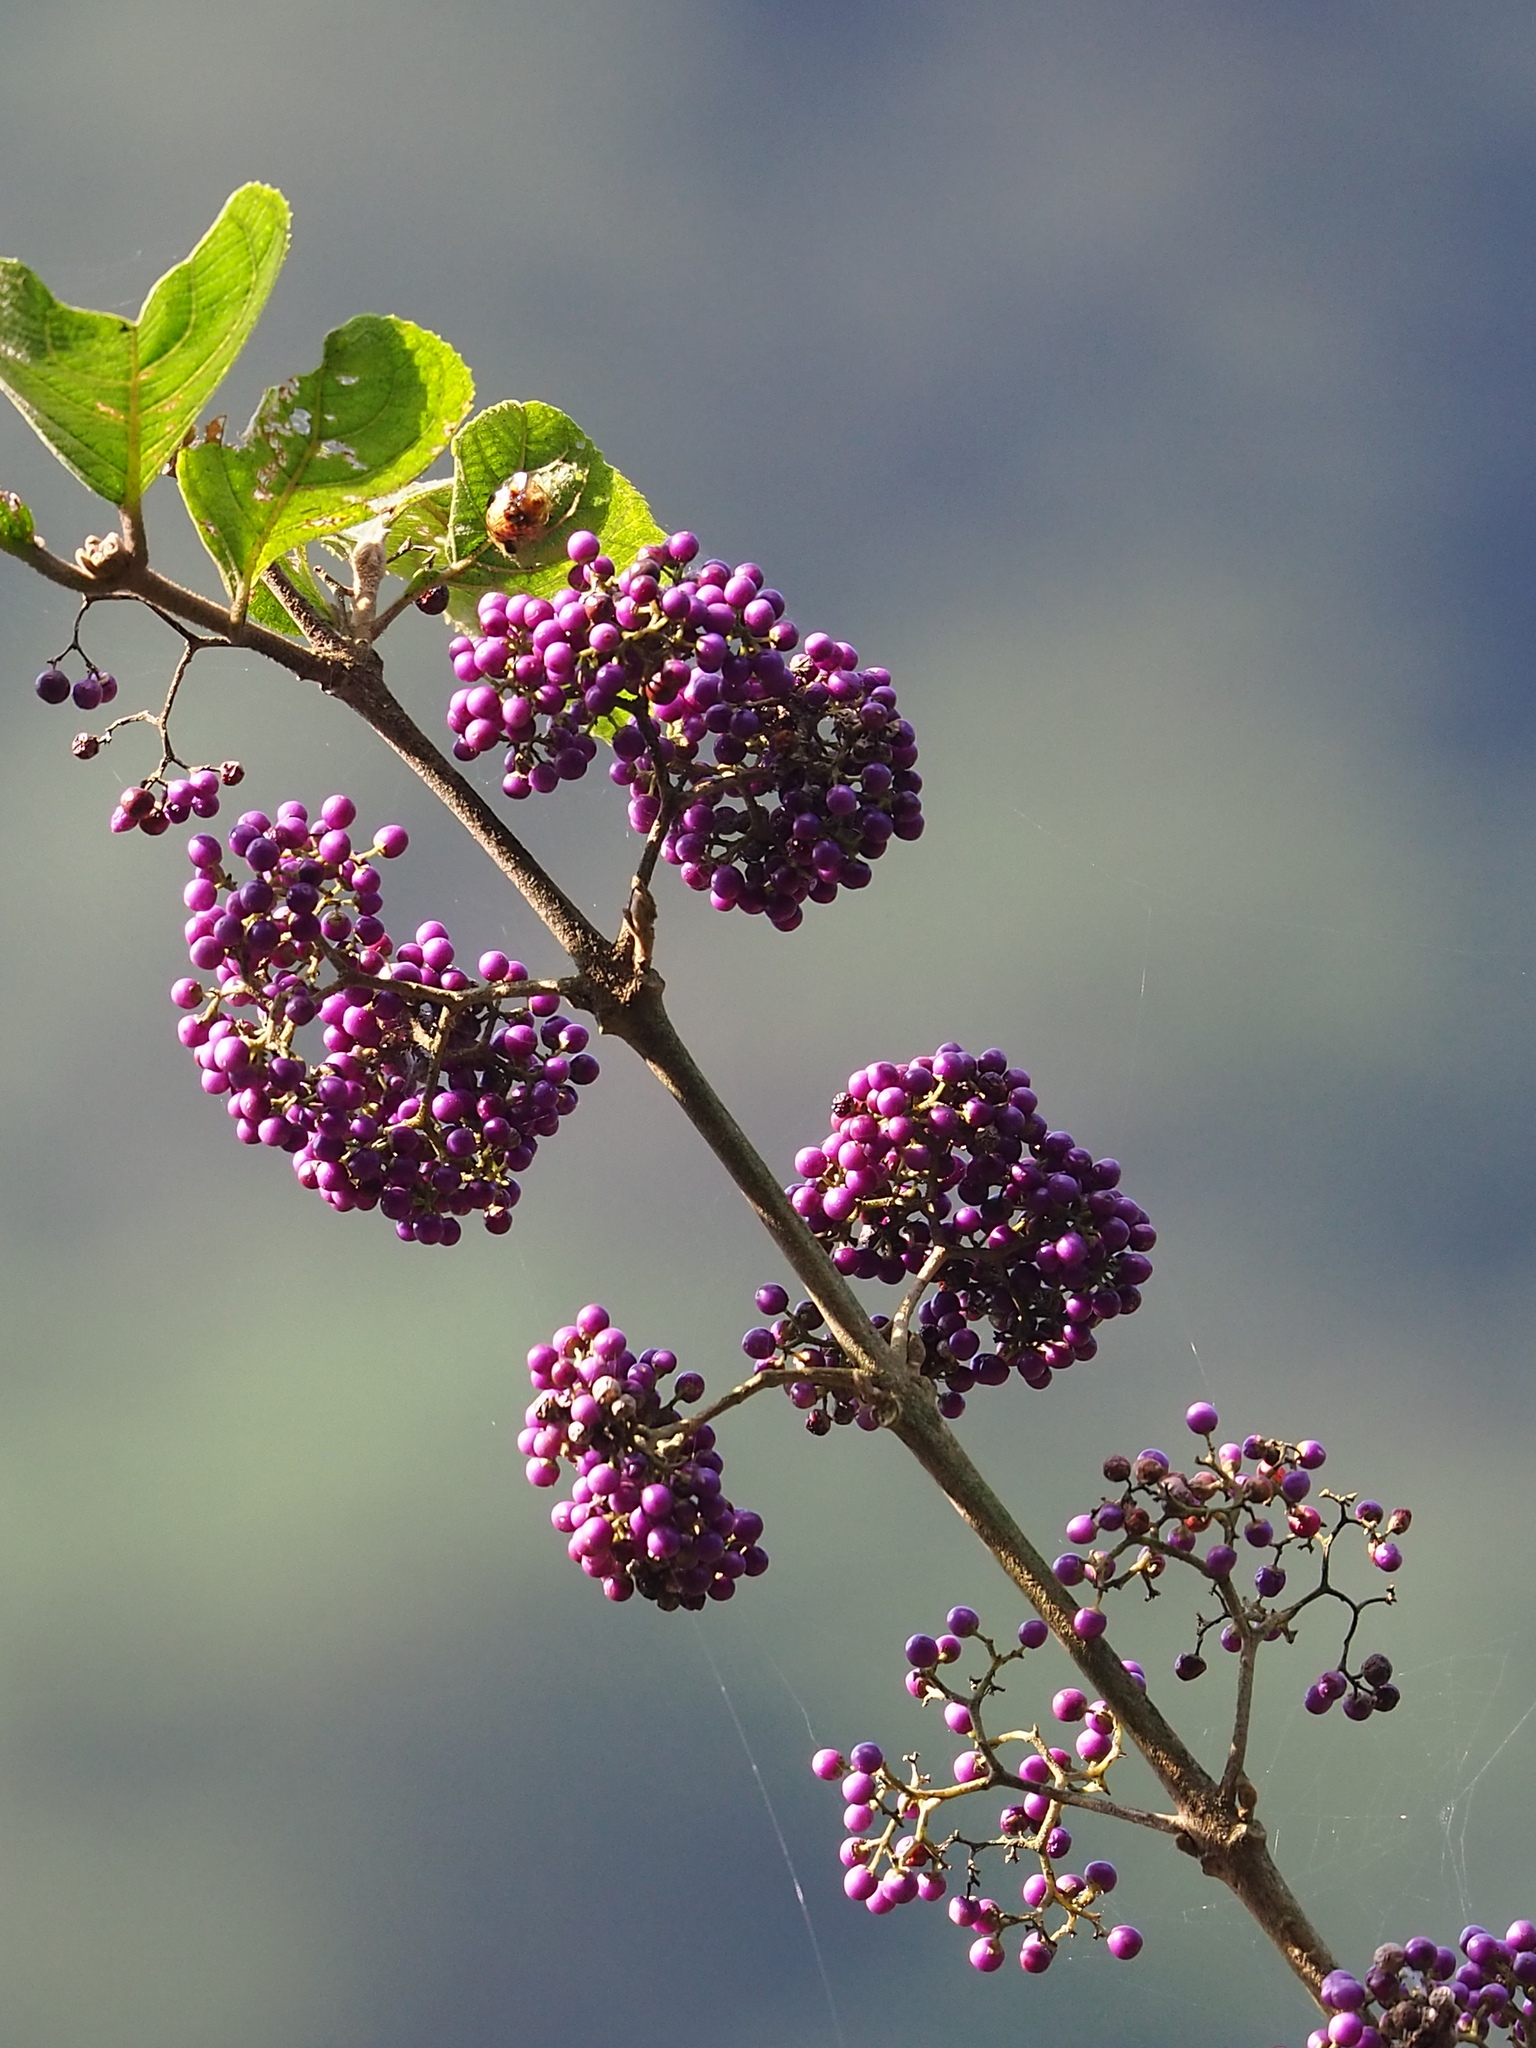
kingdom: Plantae
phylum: Tracheophyta
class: Magnoliopsida
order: Lamiales
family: Lamiaceae
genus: Callicarpa
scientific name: Callicarpa pedunculata
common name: Velvetleaf
